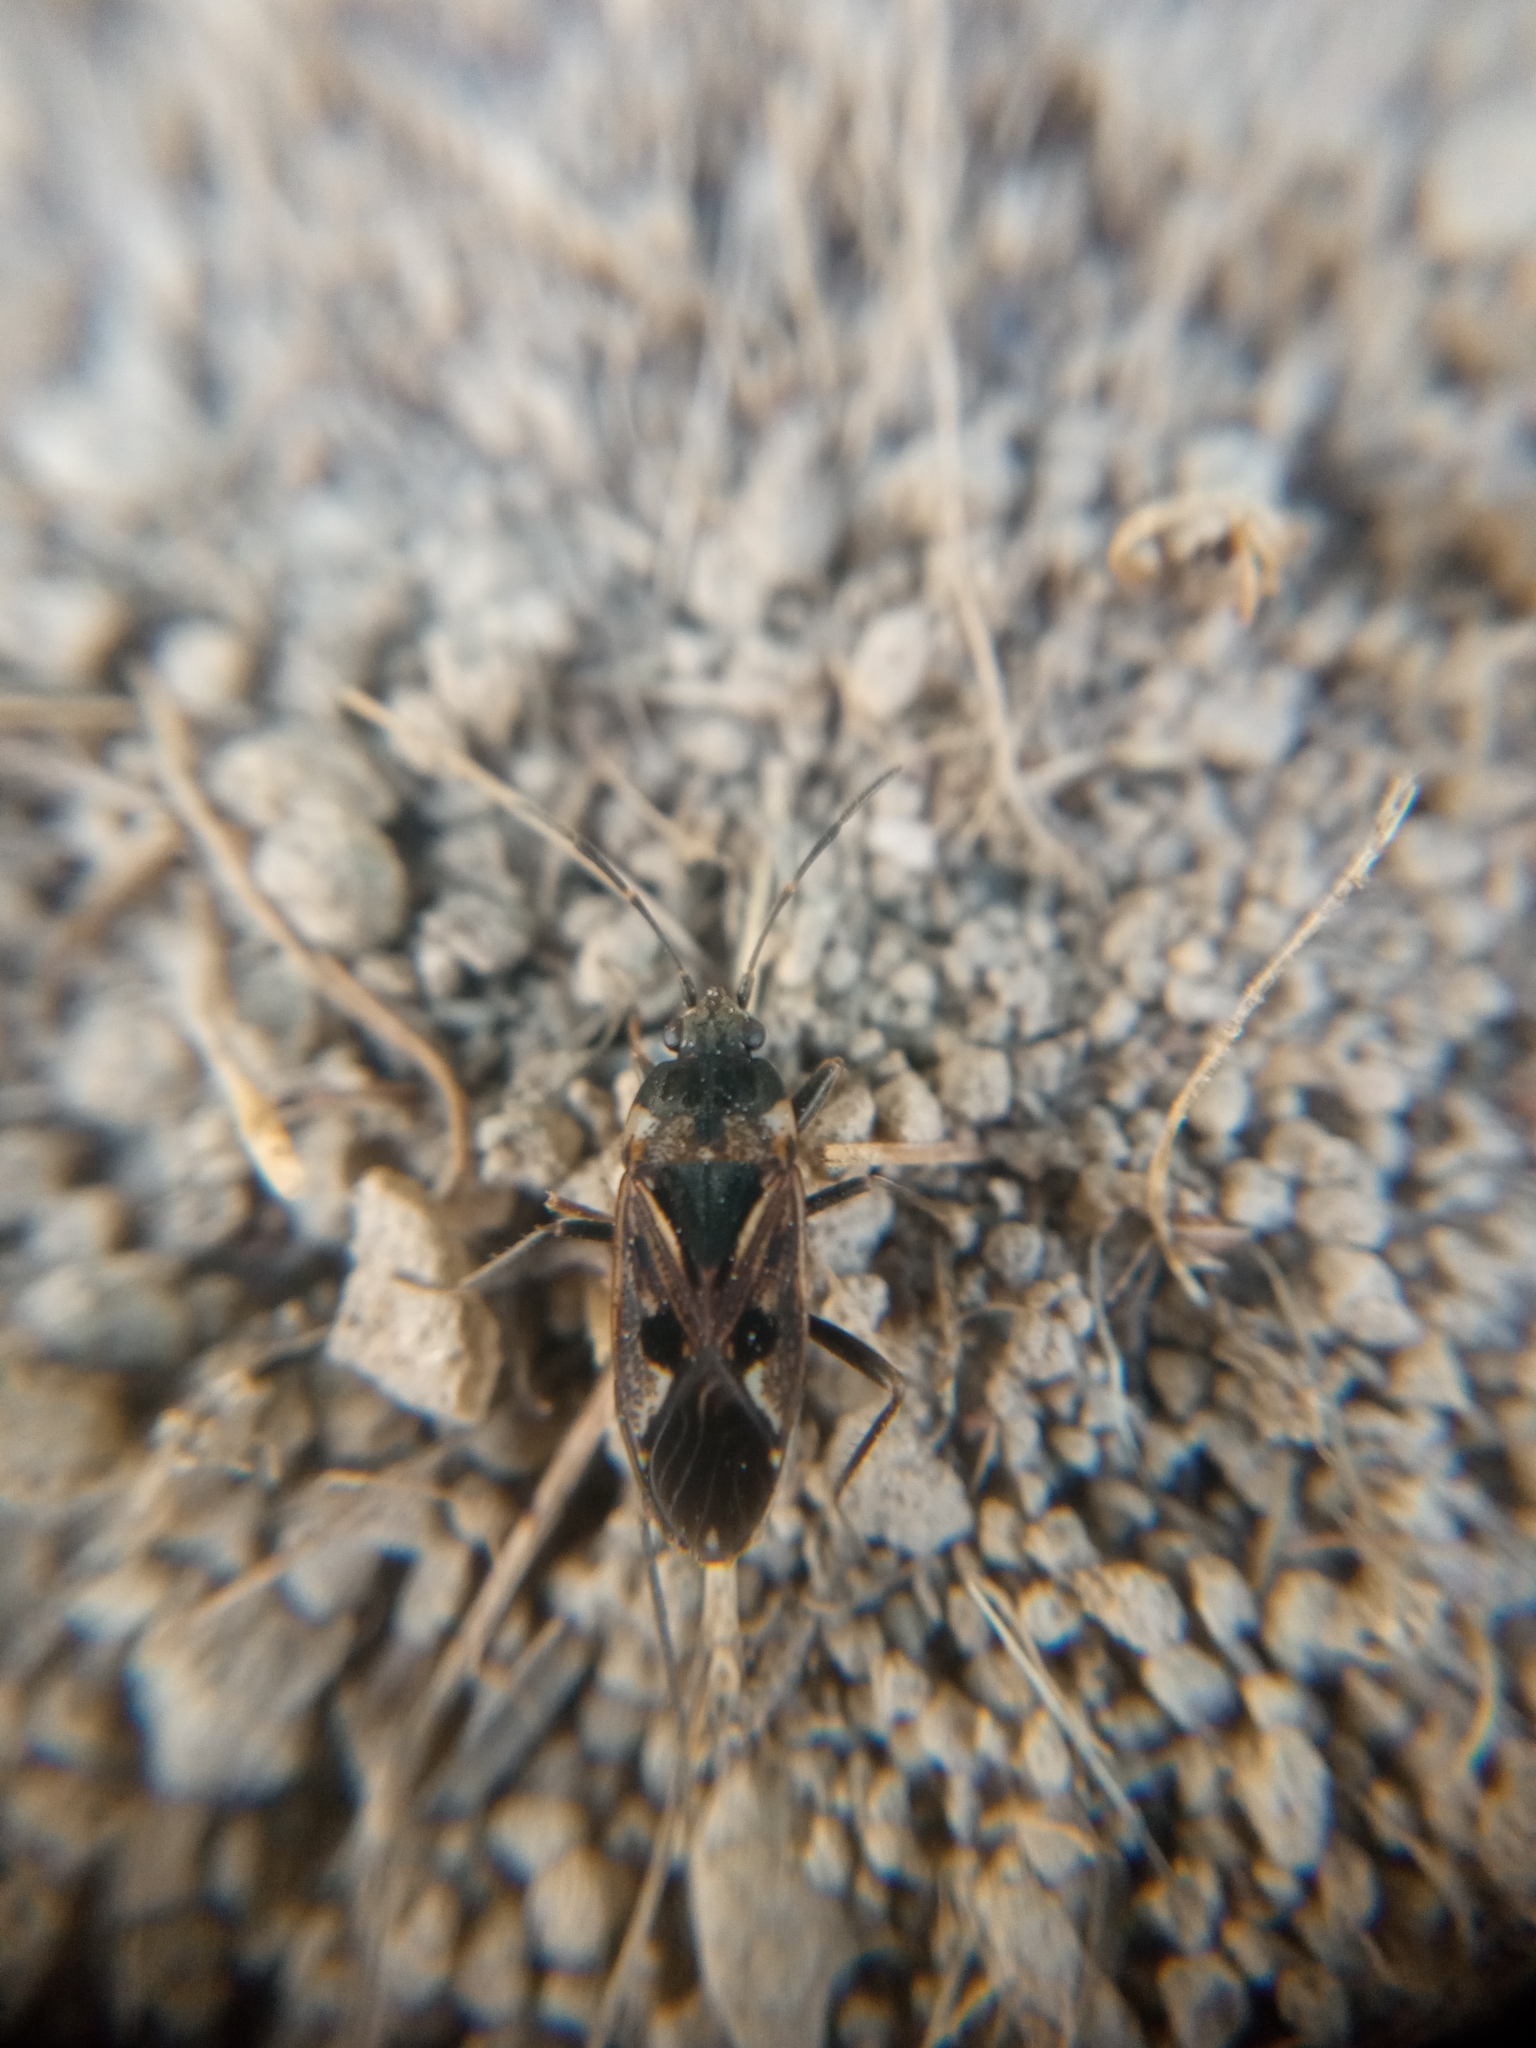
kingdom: Animalia
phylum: Arthropoda
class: Insecta
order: Hemiptera
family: Rhyparochromidae
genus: Rhyparochromus
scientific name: Rhyparochromus vulgaris
